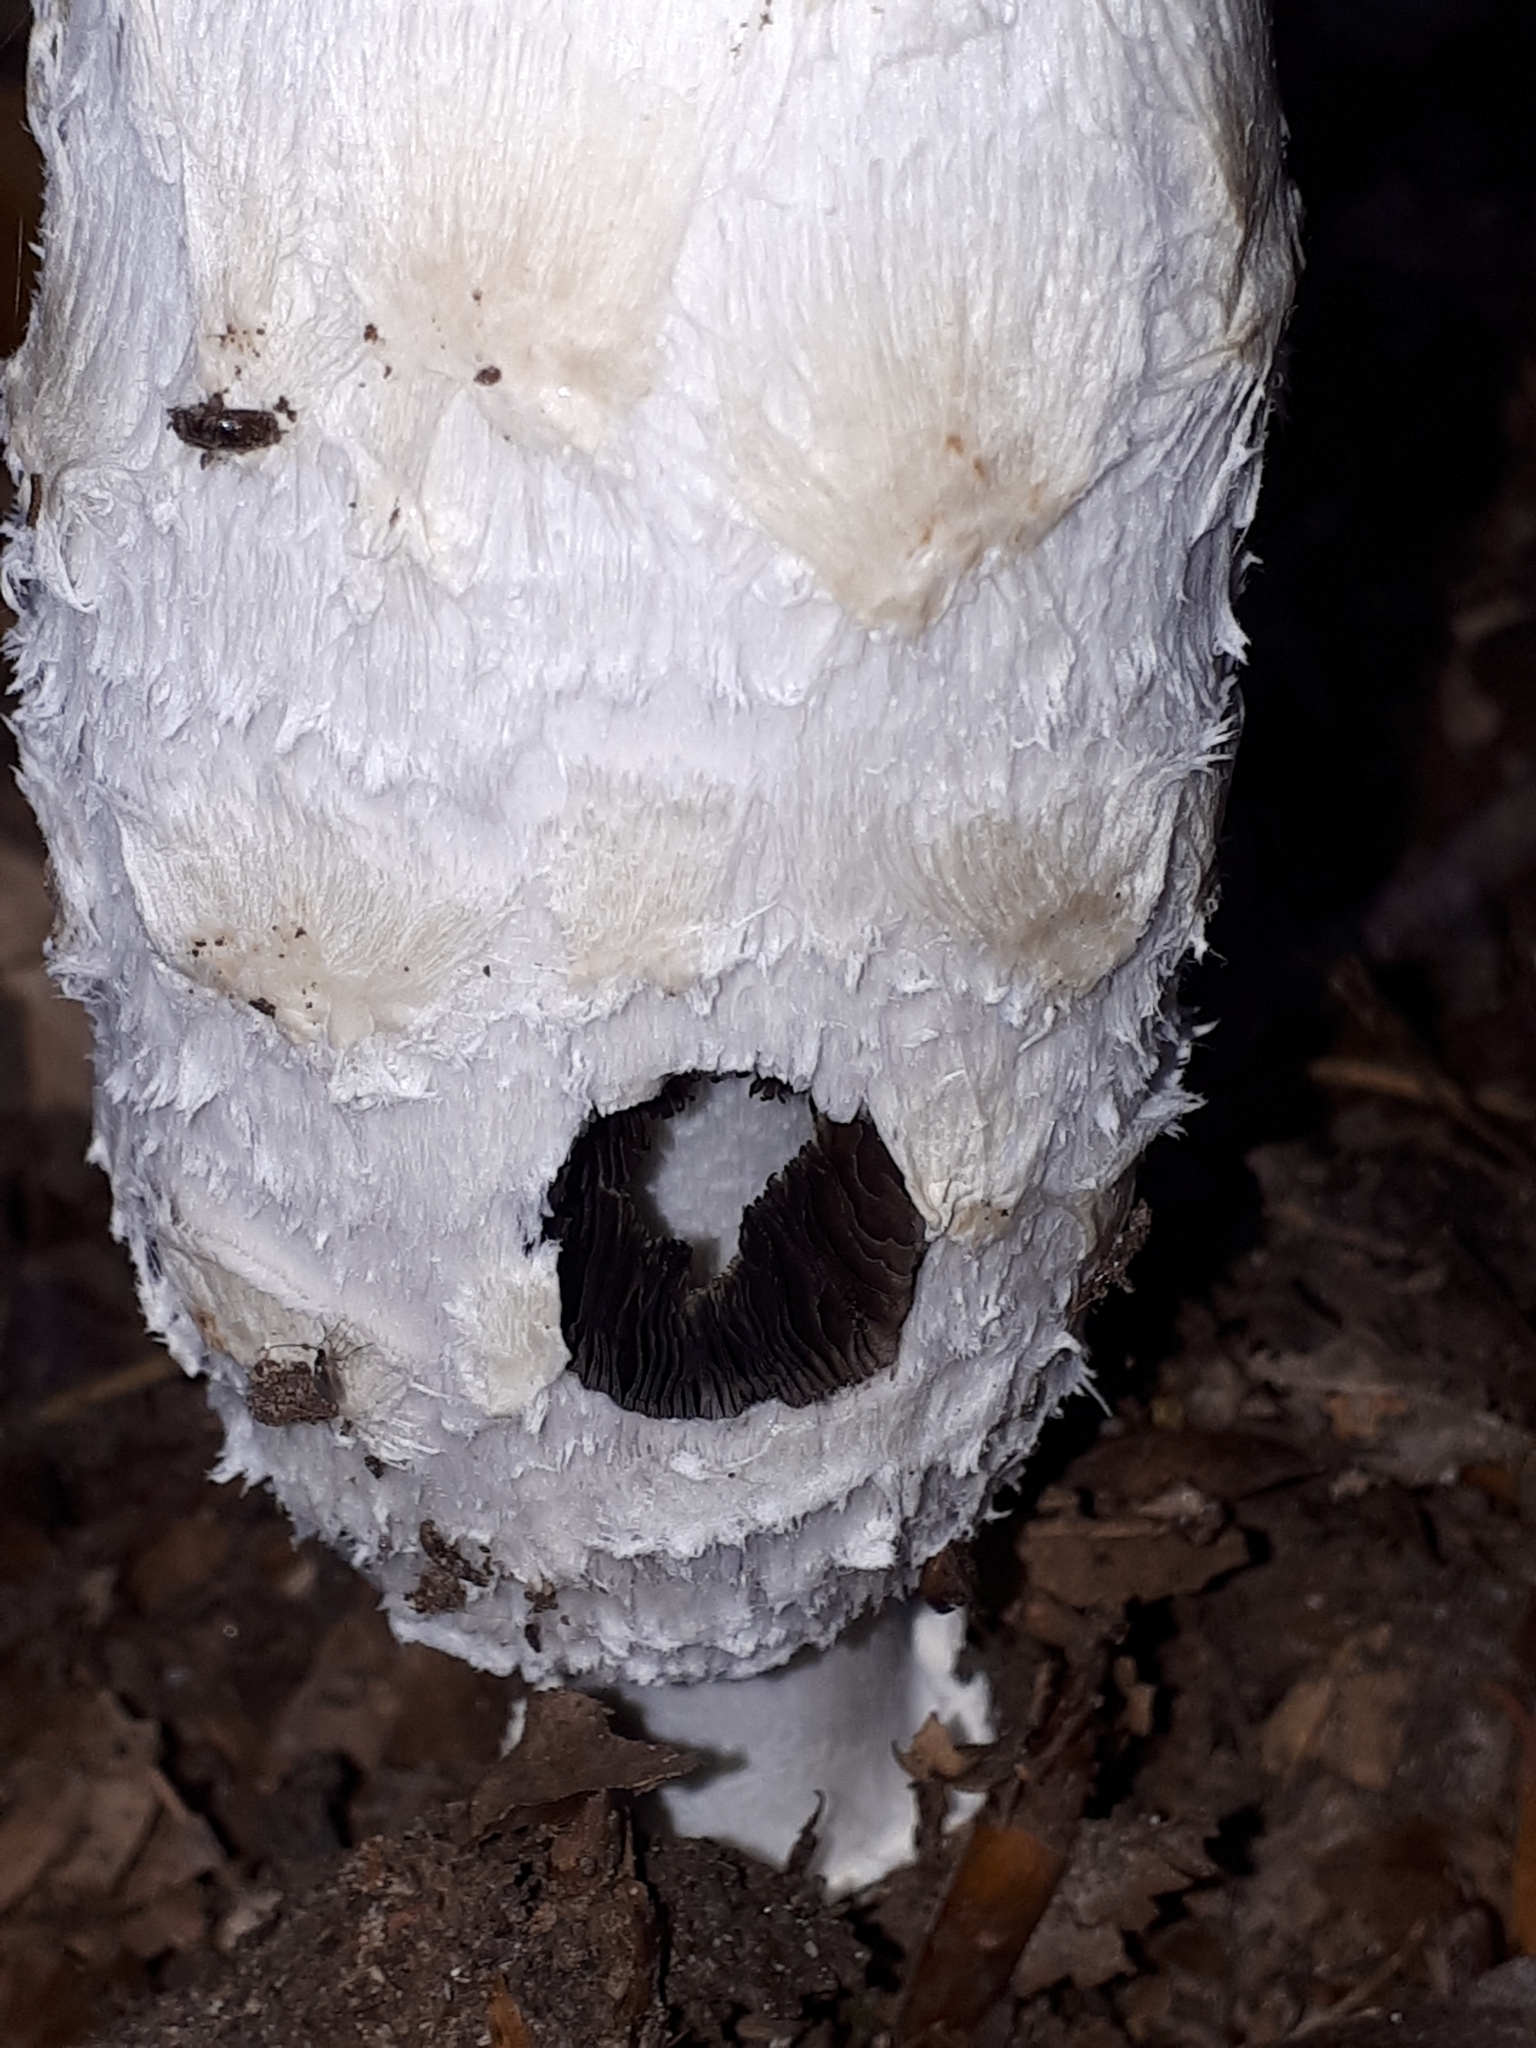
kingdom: Fungi
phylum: Basidiomycota
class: Agaricomycetes
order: Agaricales
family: Agaricaceae
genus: Coprinus
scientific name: Coprinus comatus
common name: Lawyer's wig
